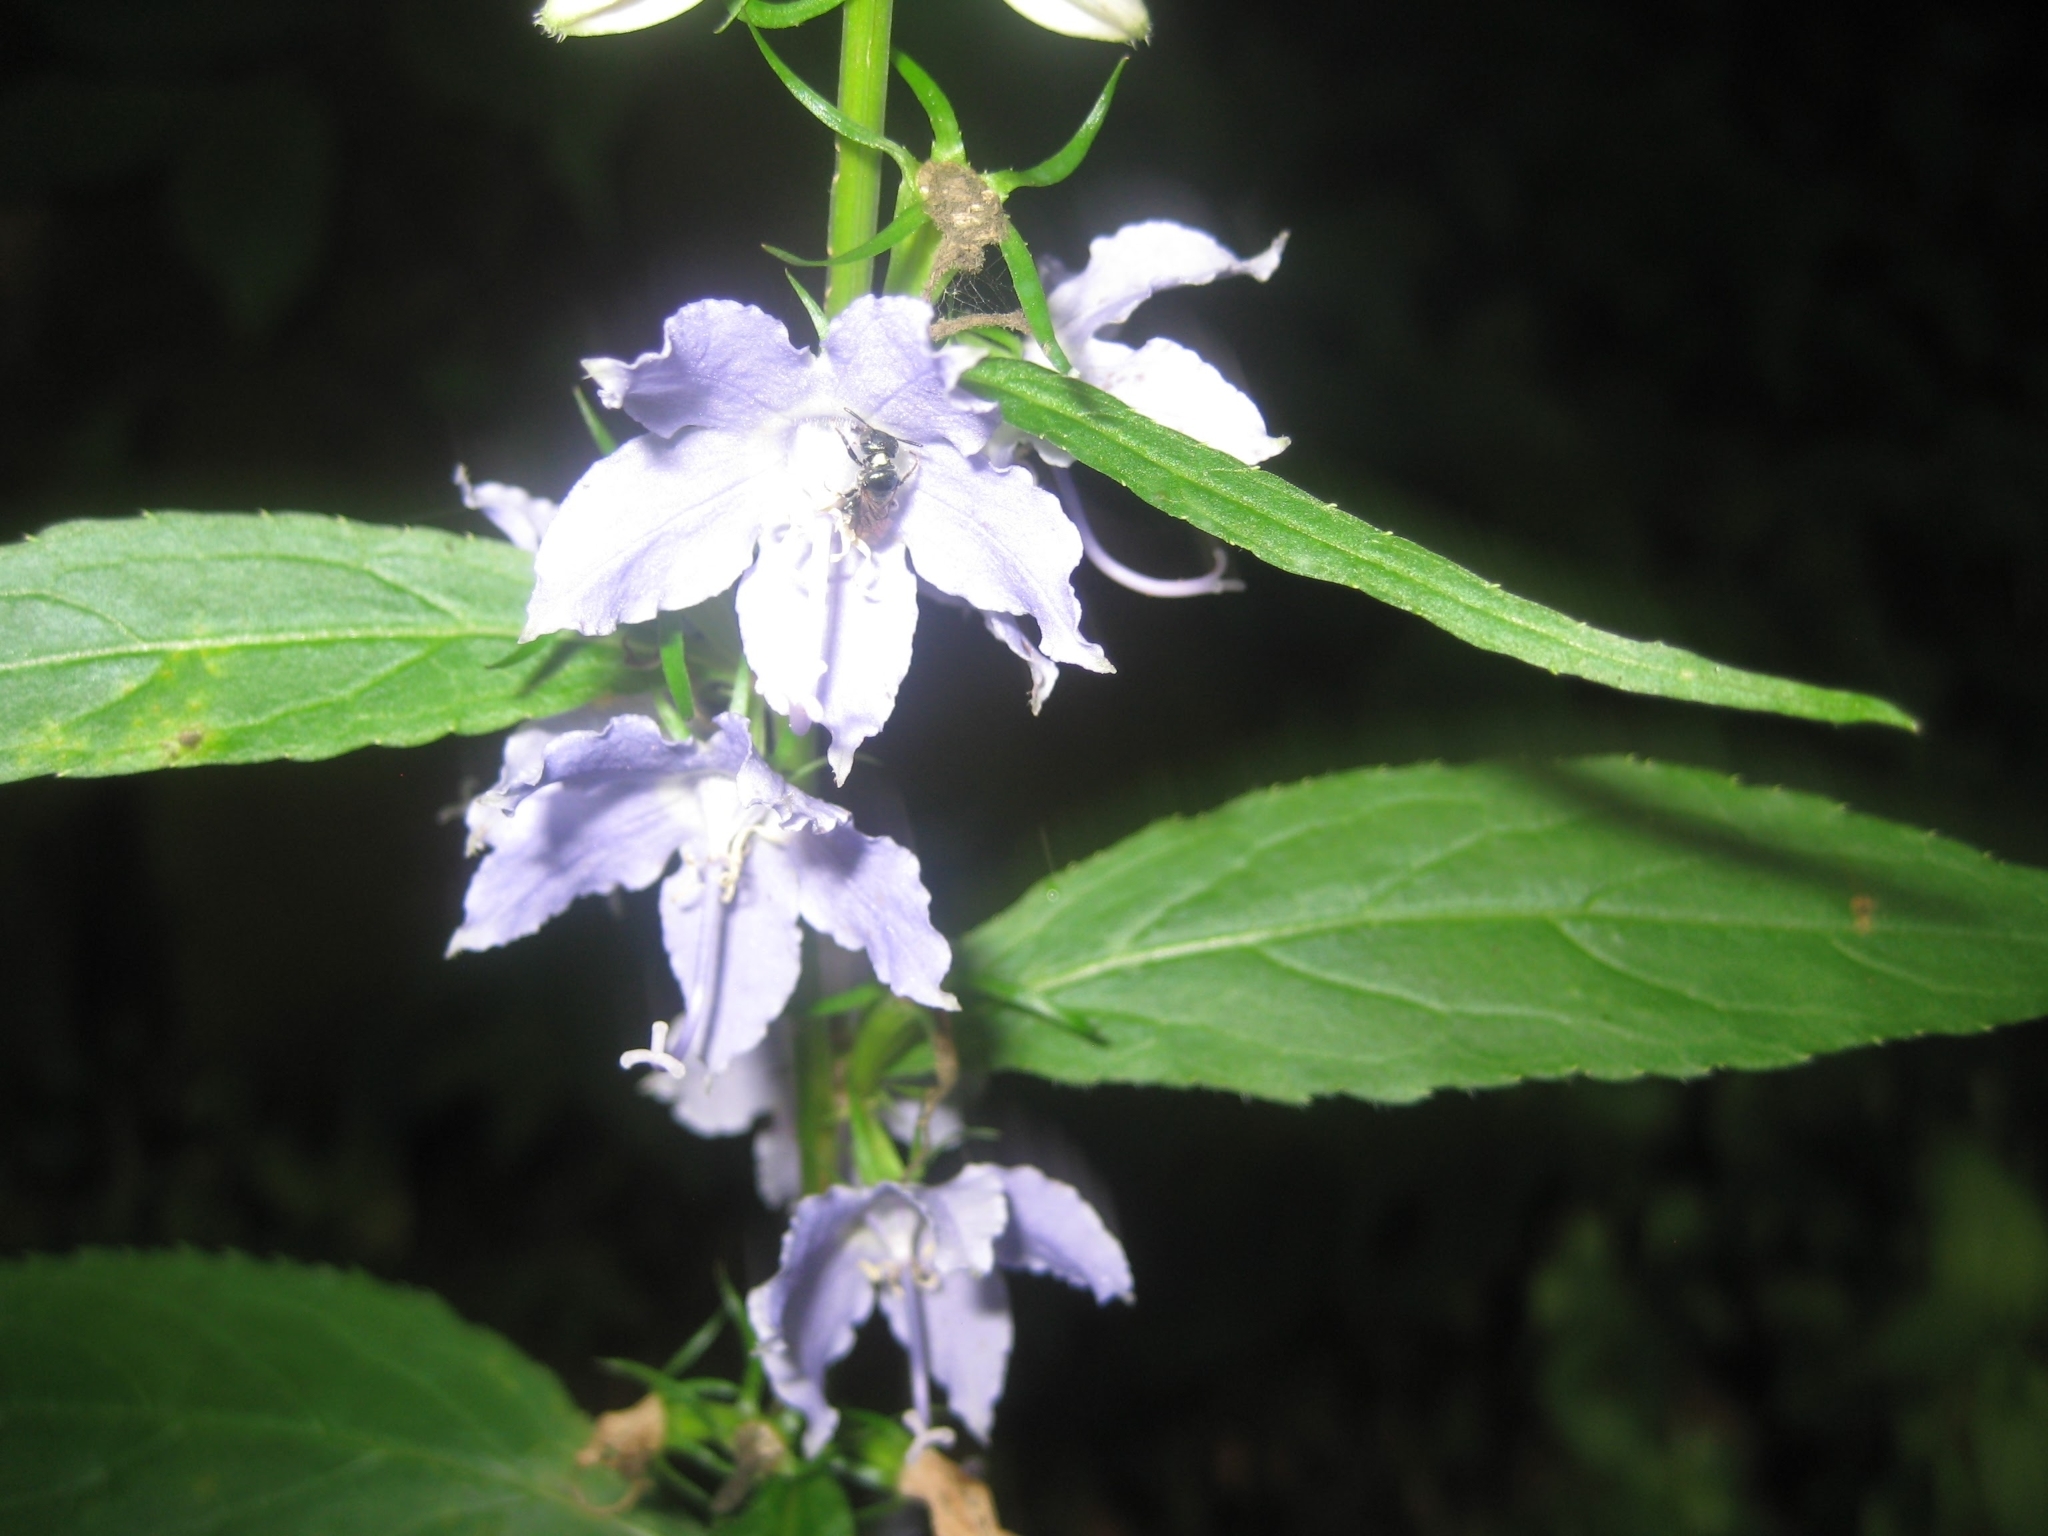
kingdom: Plantae
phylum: Tracheophyta
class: Magnoliopsida
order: Asterales
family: Campanulaceae
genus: Campanulastrum
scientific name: Campanulastrum americanum
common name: American bellflower
